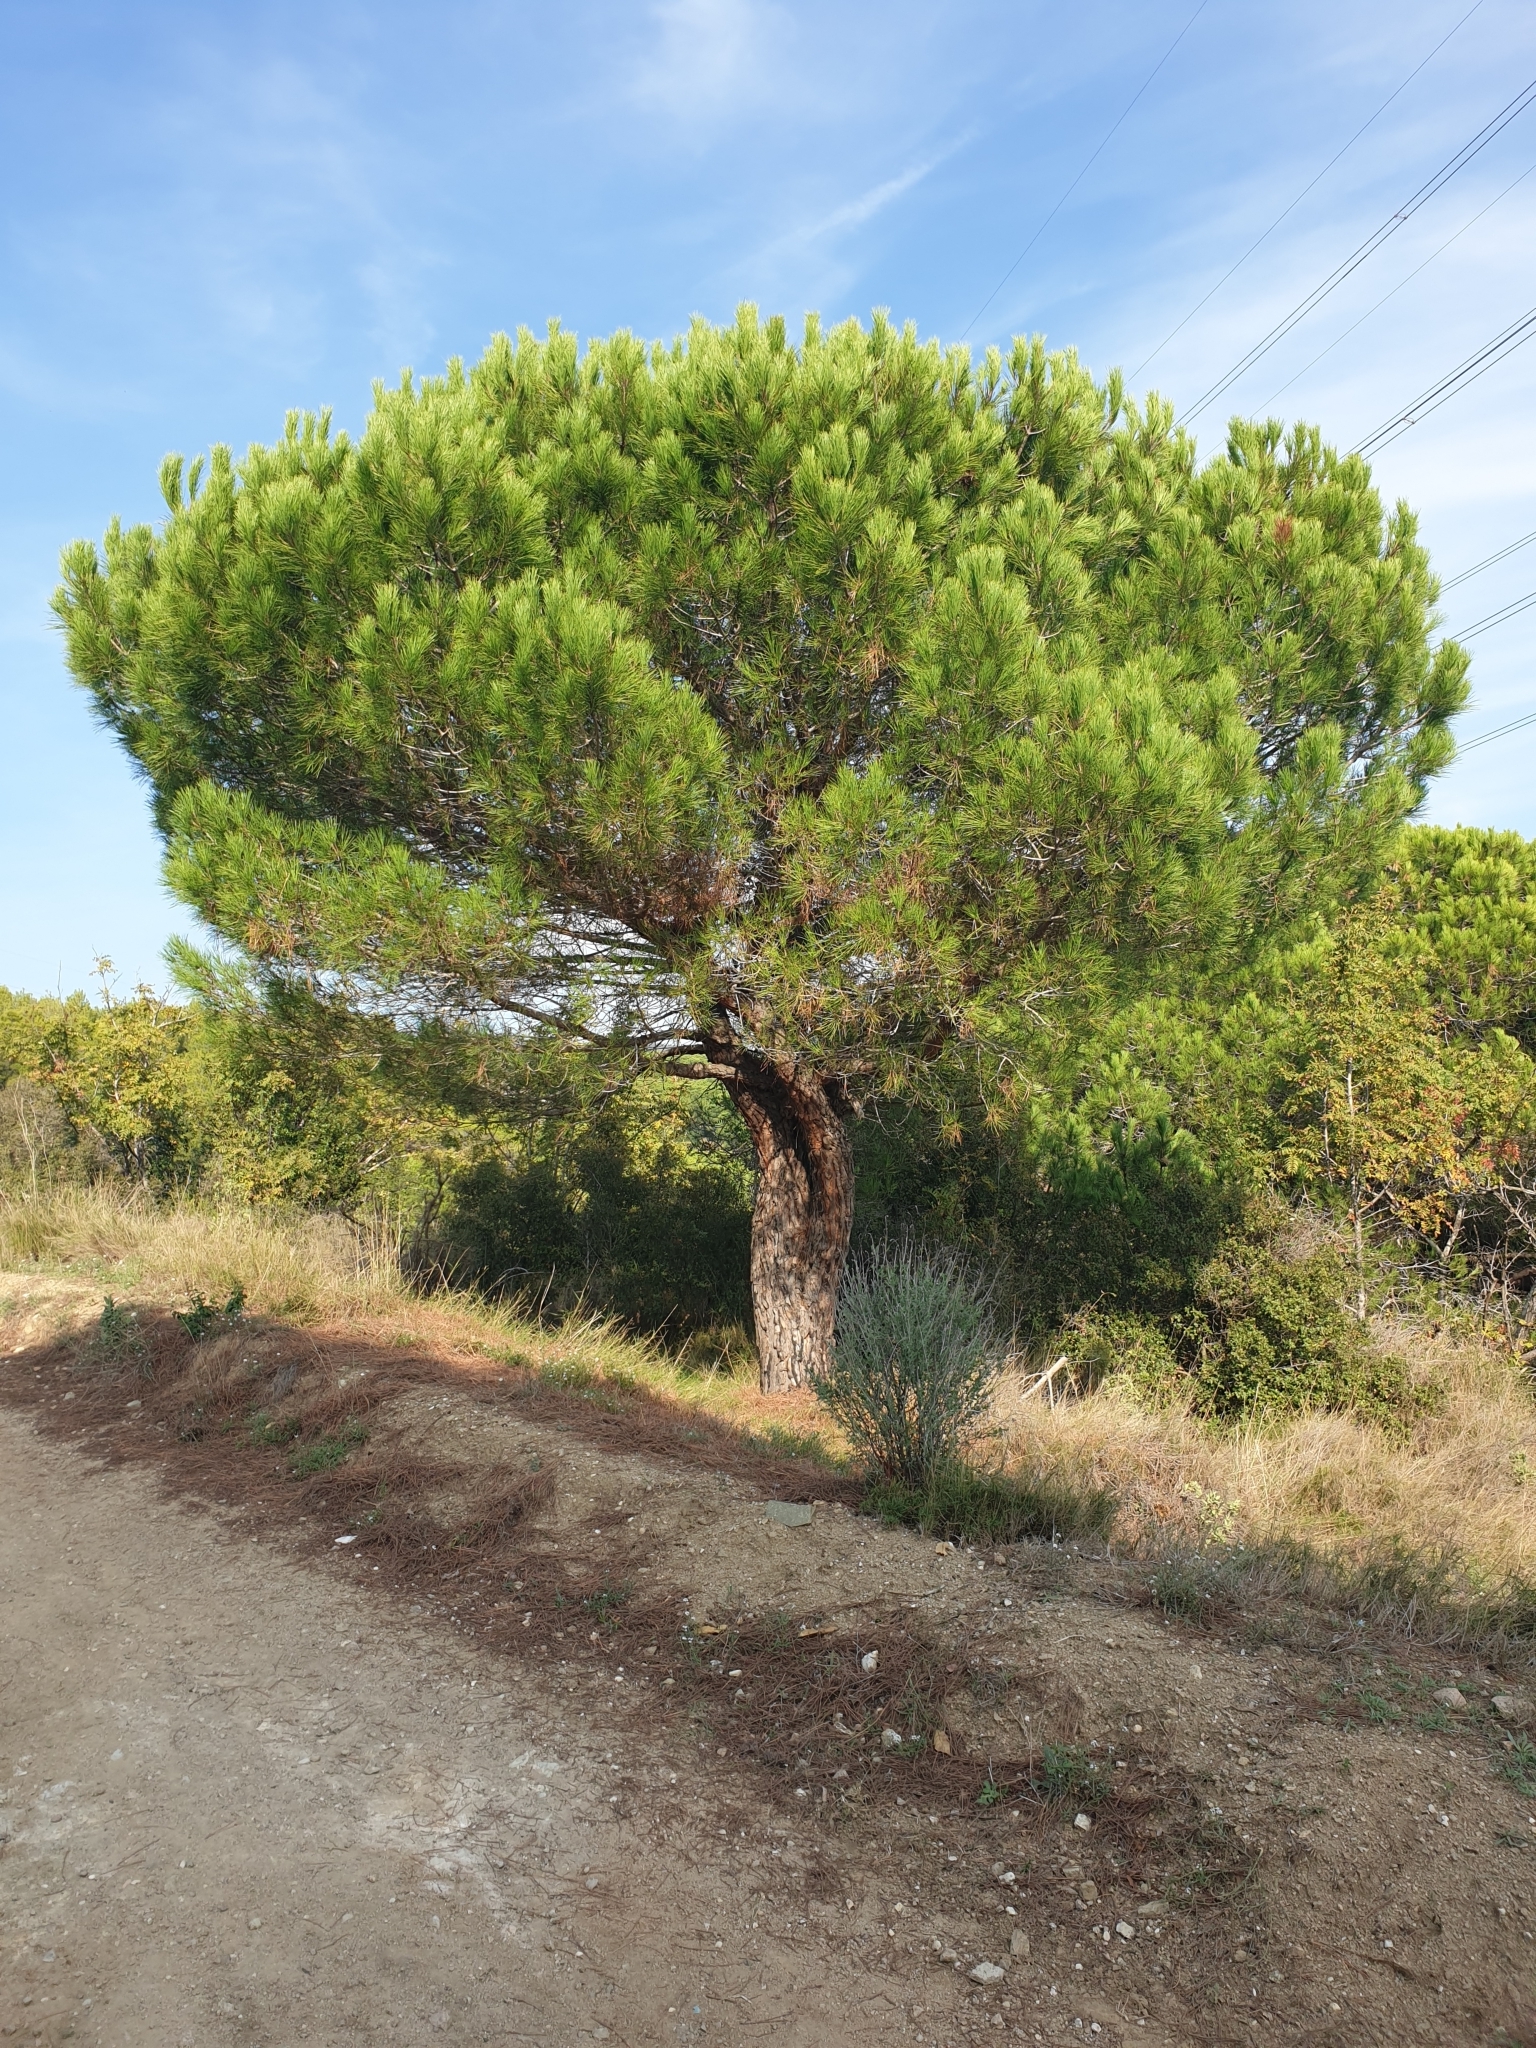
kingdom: Plantae
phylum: Tracheophyta
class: Pinopsida
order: Pinales
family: Pinaceae
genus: Pinus
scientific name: Pinus pinea
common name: Italian stone pine
